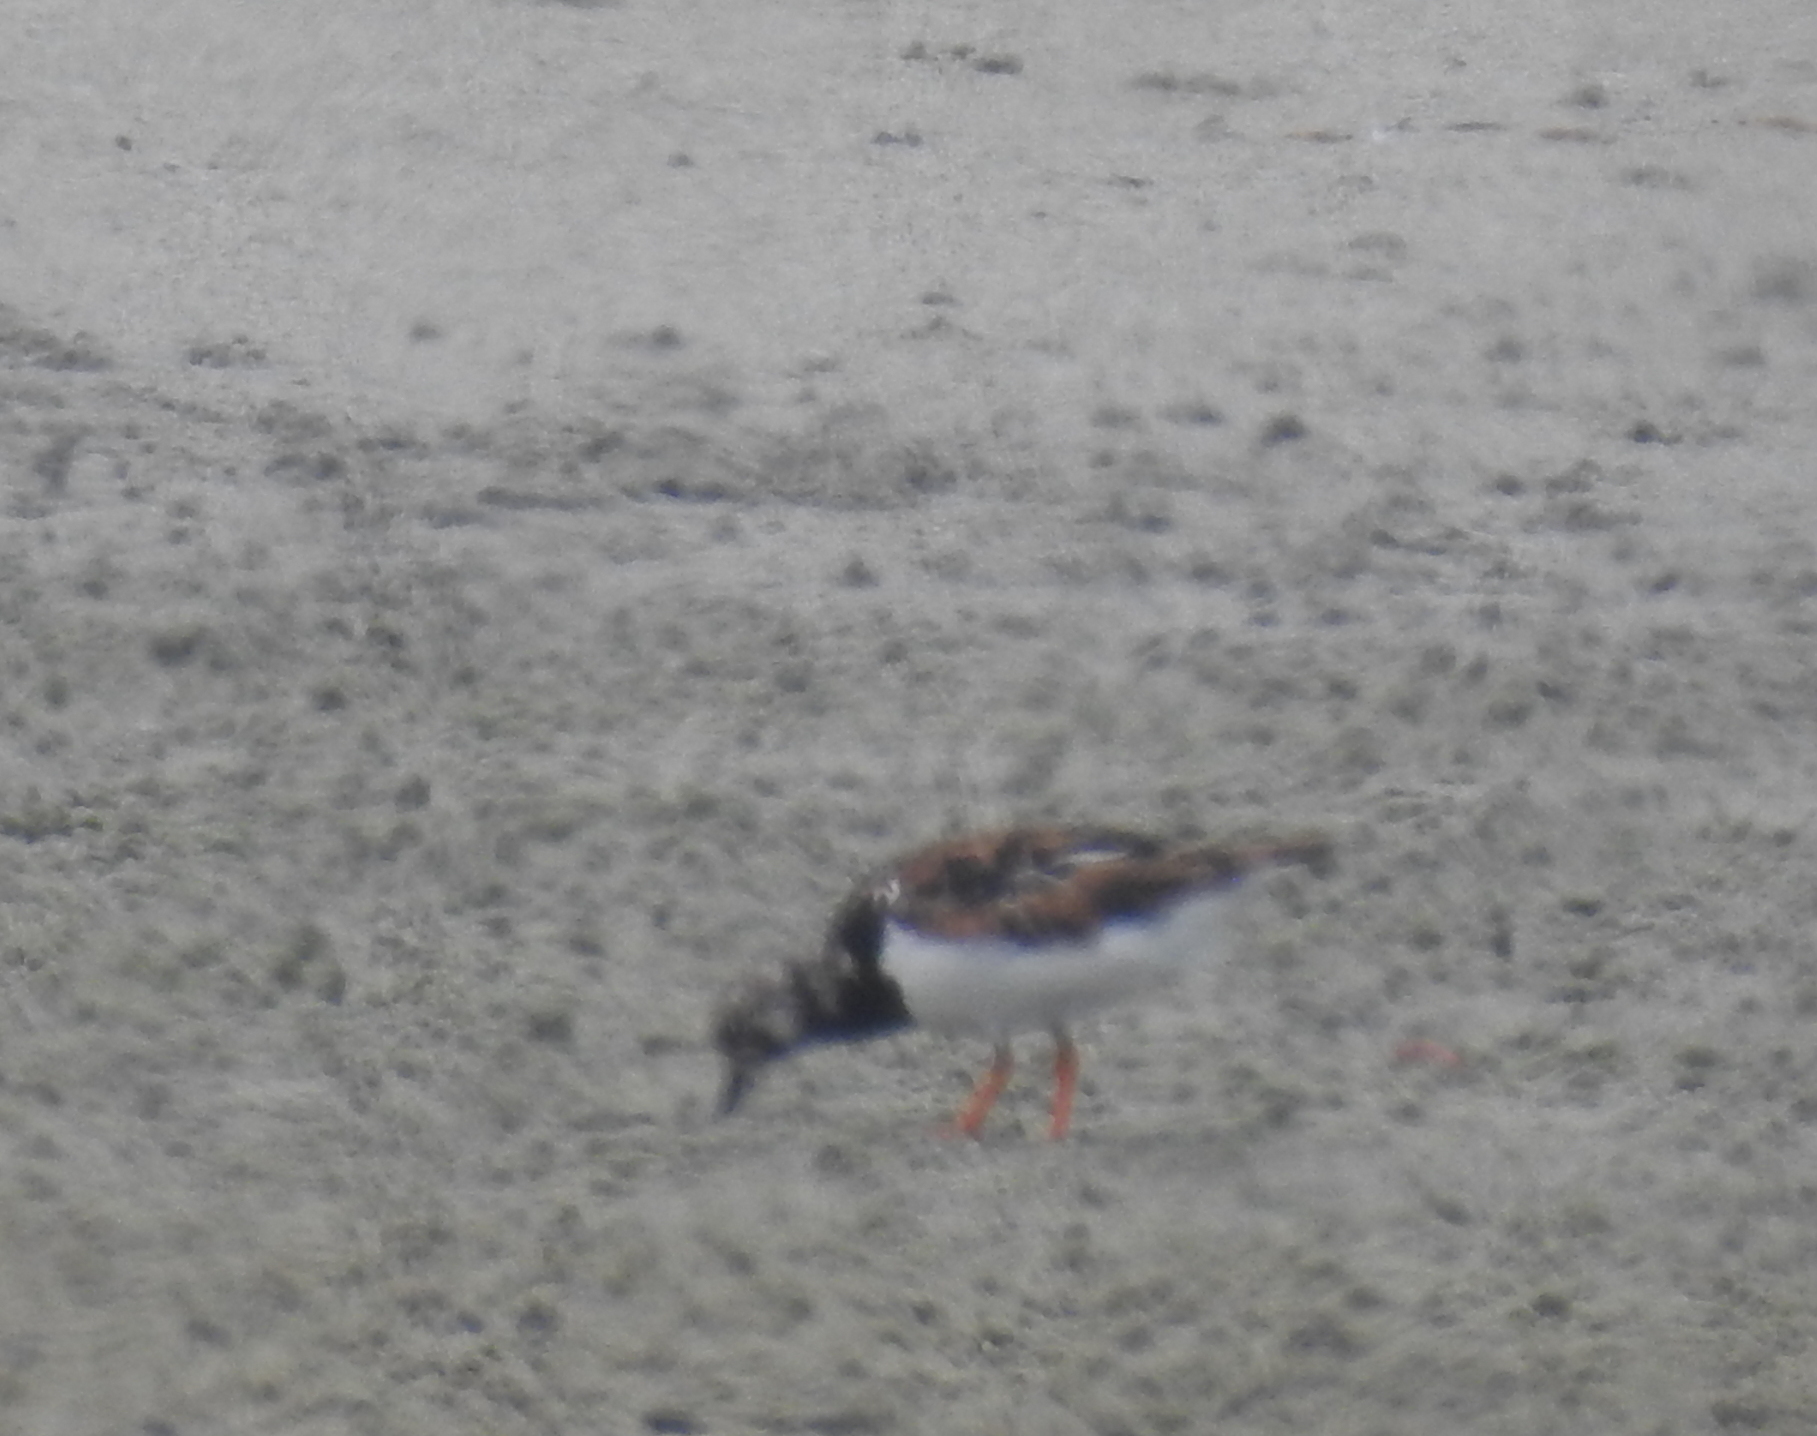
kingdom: Animalia
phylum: Chordata
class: Aves
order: Charadriiformes
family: Scolopacidae
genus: Arenaria
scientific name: Arenaria interpres
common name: Ruddy turnstone
